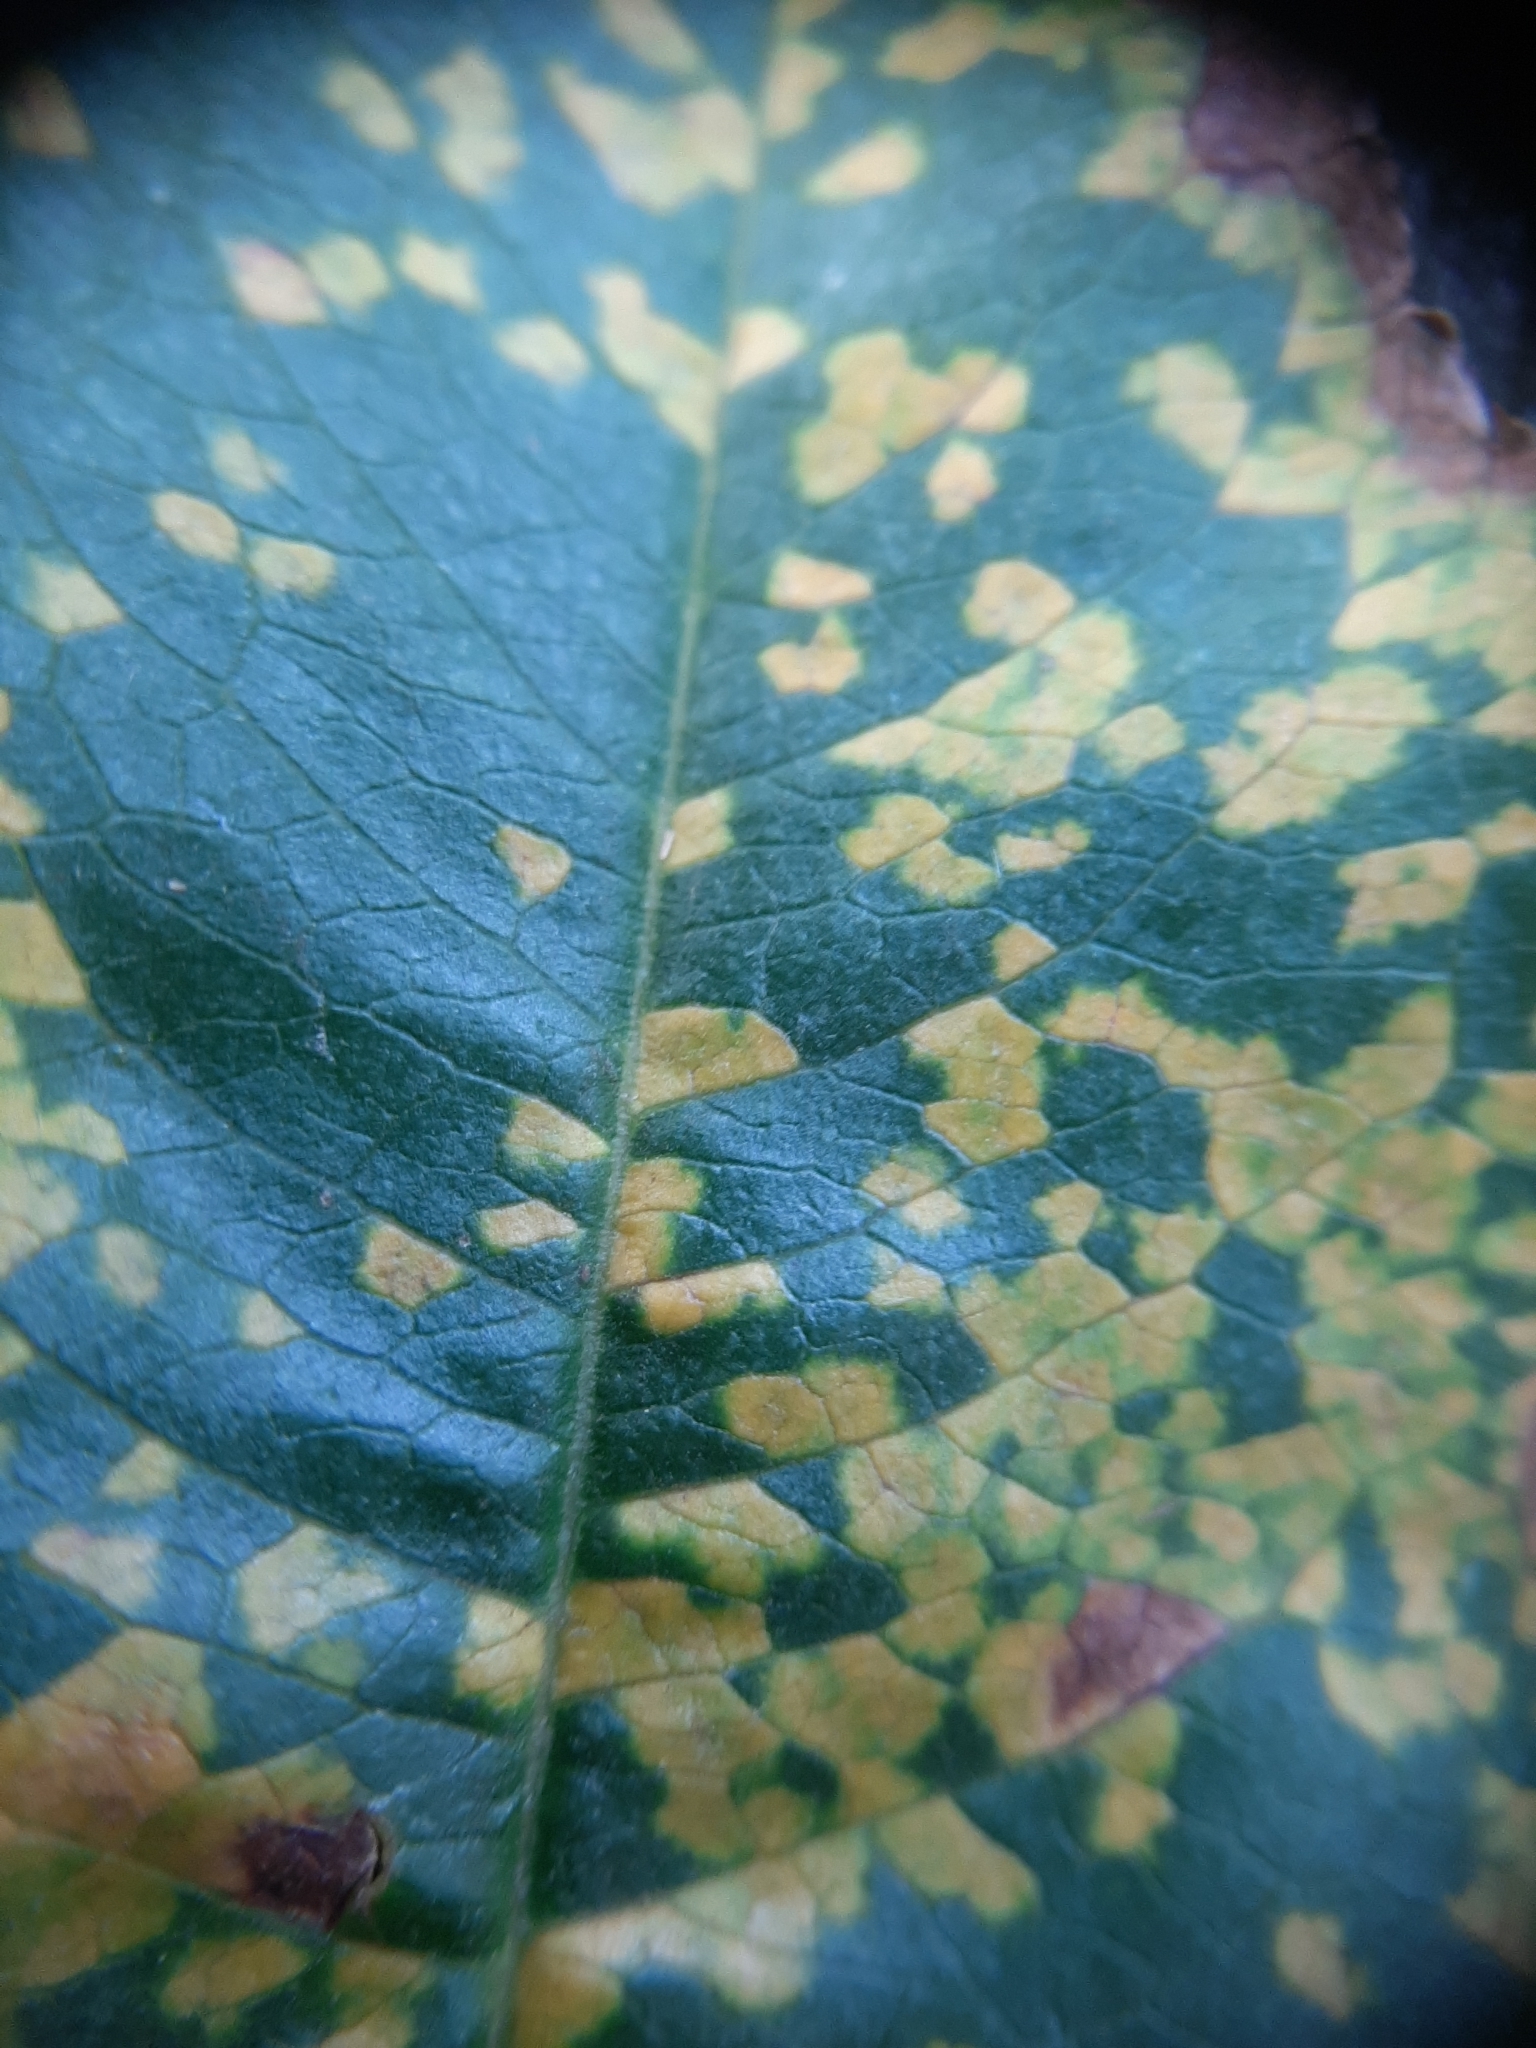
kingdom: Fungi
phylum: Basidiomycota
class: Pucciniomycetes
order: Pucciniales
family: Tranzscheliaceae
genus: Tranzschelia
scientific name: Tranzschelia discolor
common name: Plum rust
